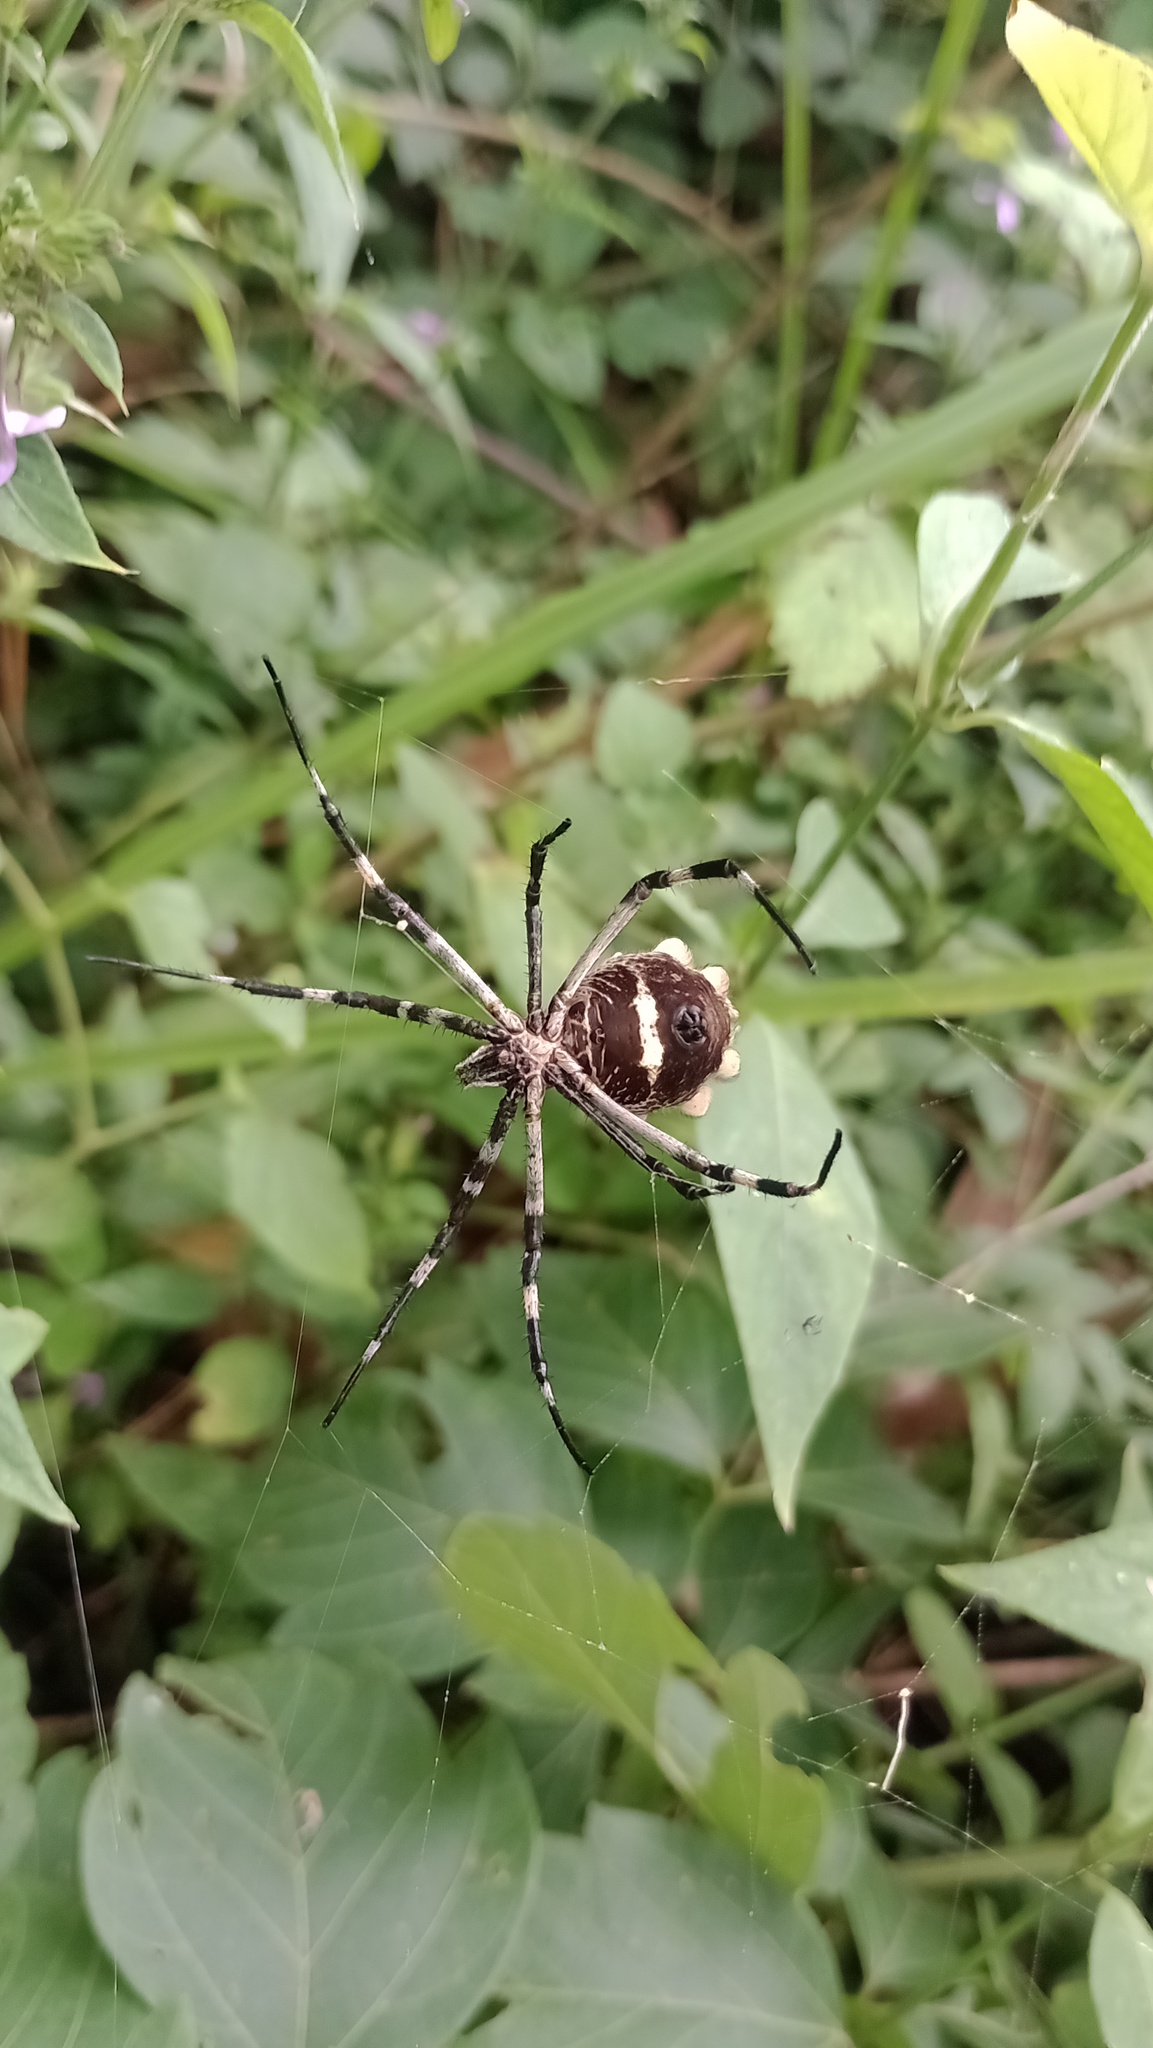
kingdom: Animalia
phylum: Arthropoda
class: Arachnida
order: Araneae
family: Araneidae
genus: Argiope
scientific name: Argiope argentata
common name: Orb weavers
